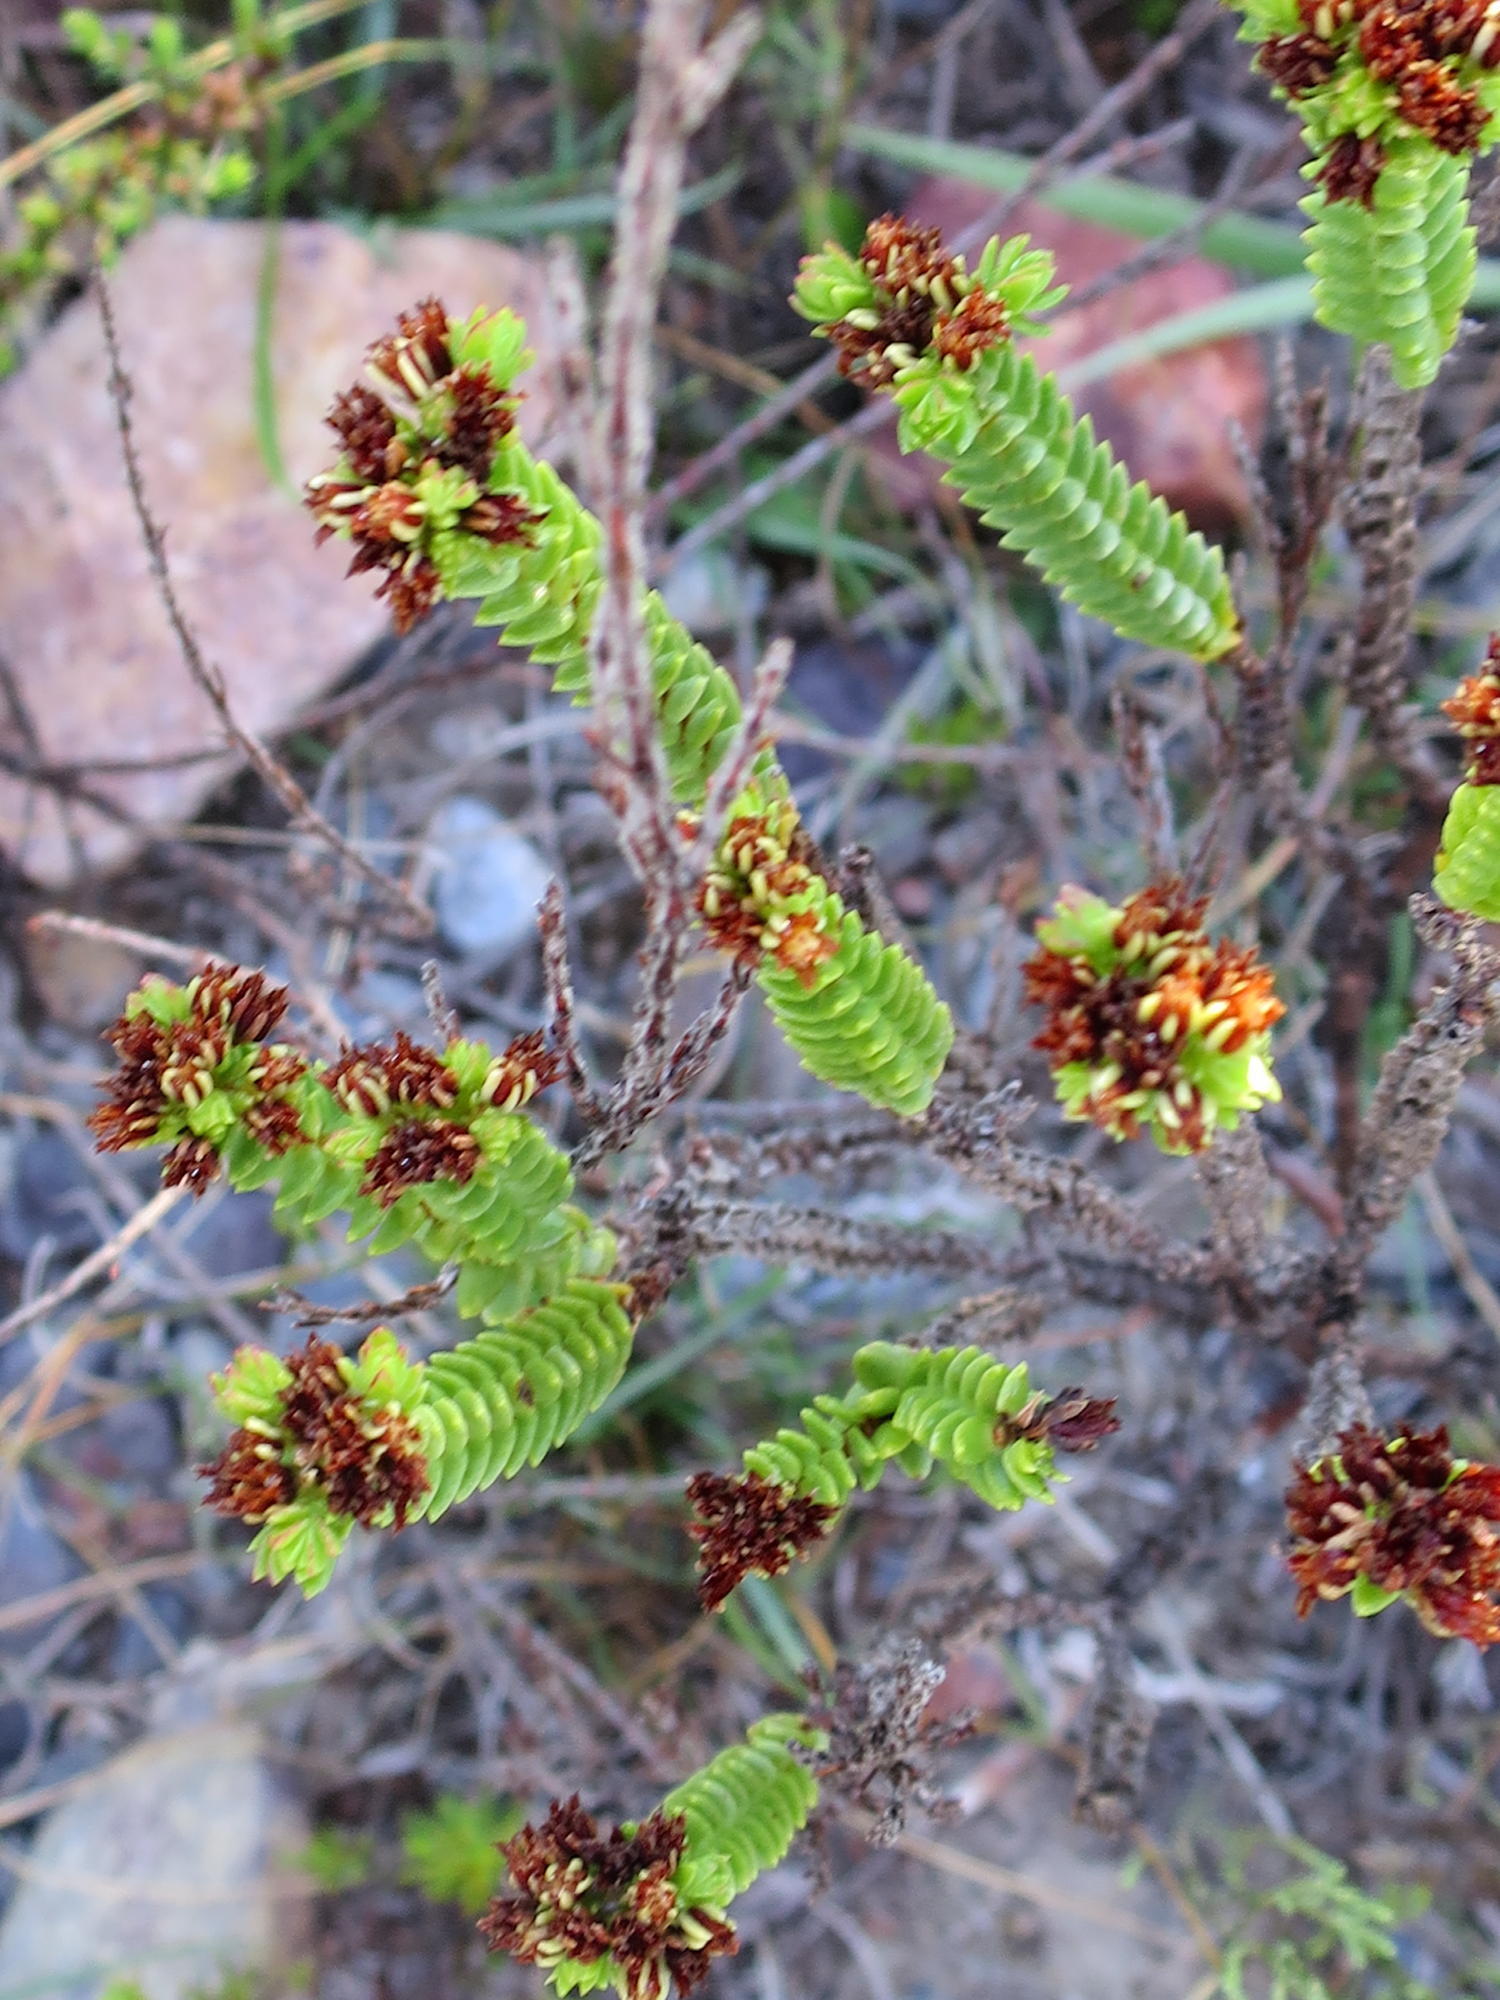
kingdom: Plantae
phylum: Tracheophyta
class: Magnoliopsida
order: Saxifragales
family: Crassulaceae
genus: Crassula
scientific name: Crassula ericoides
